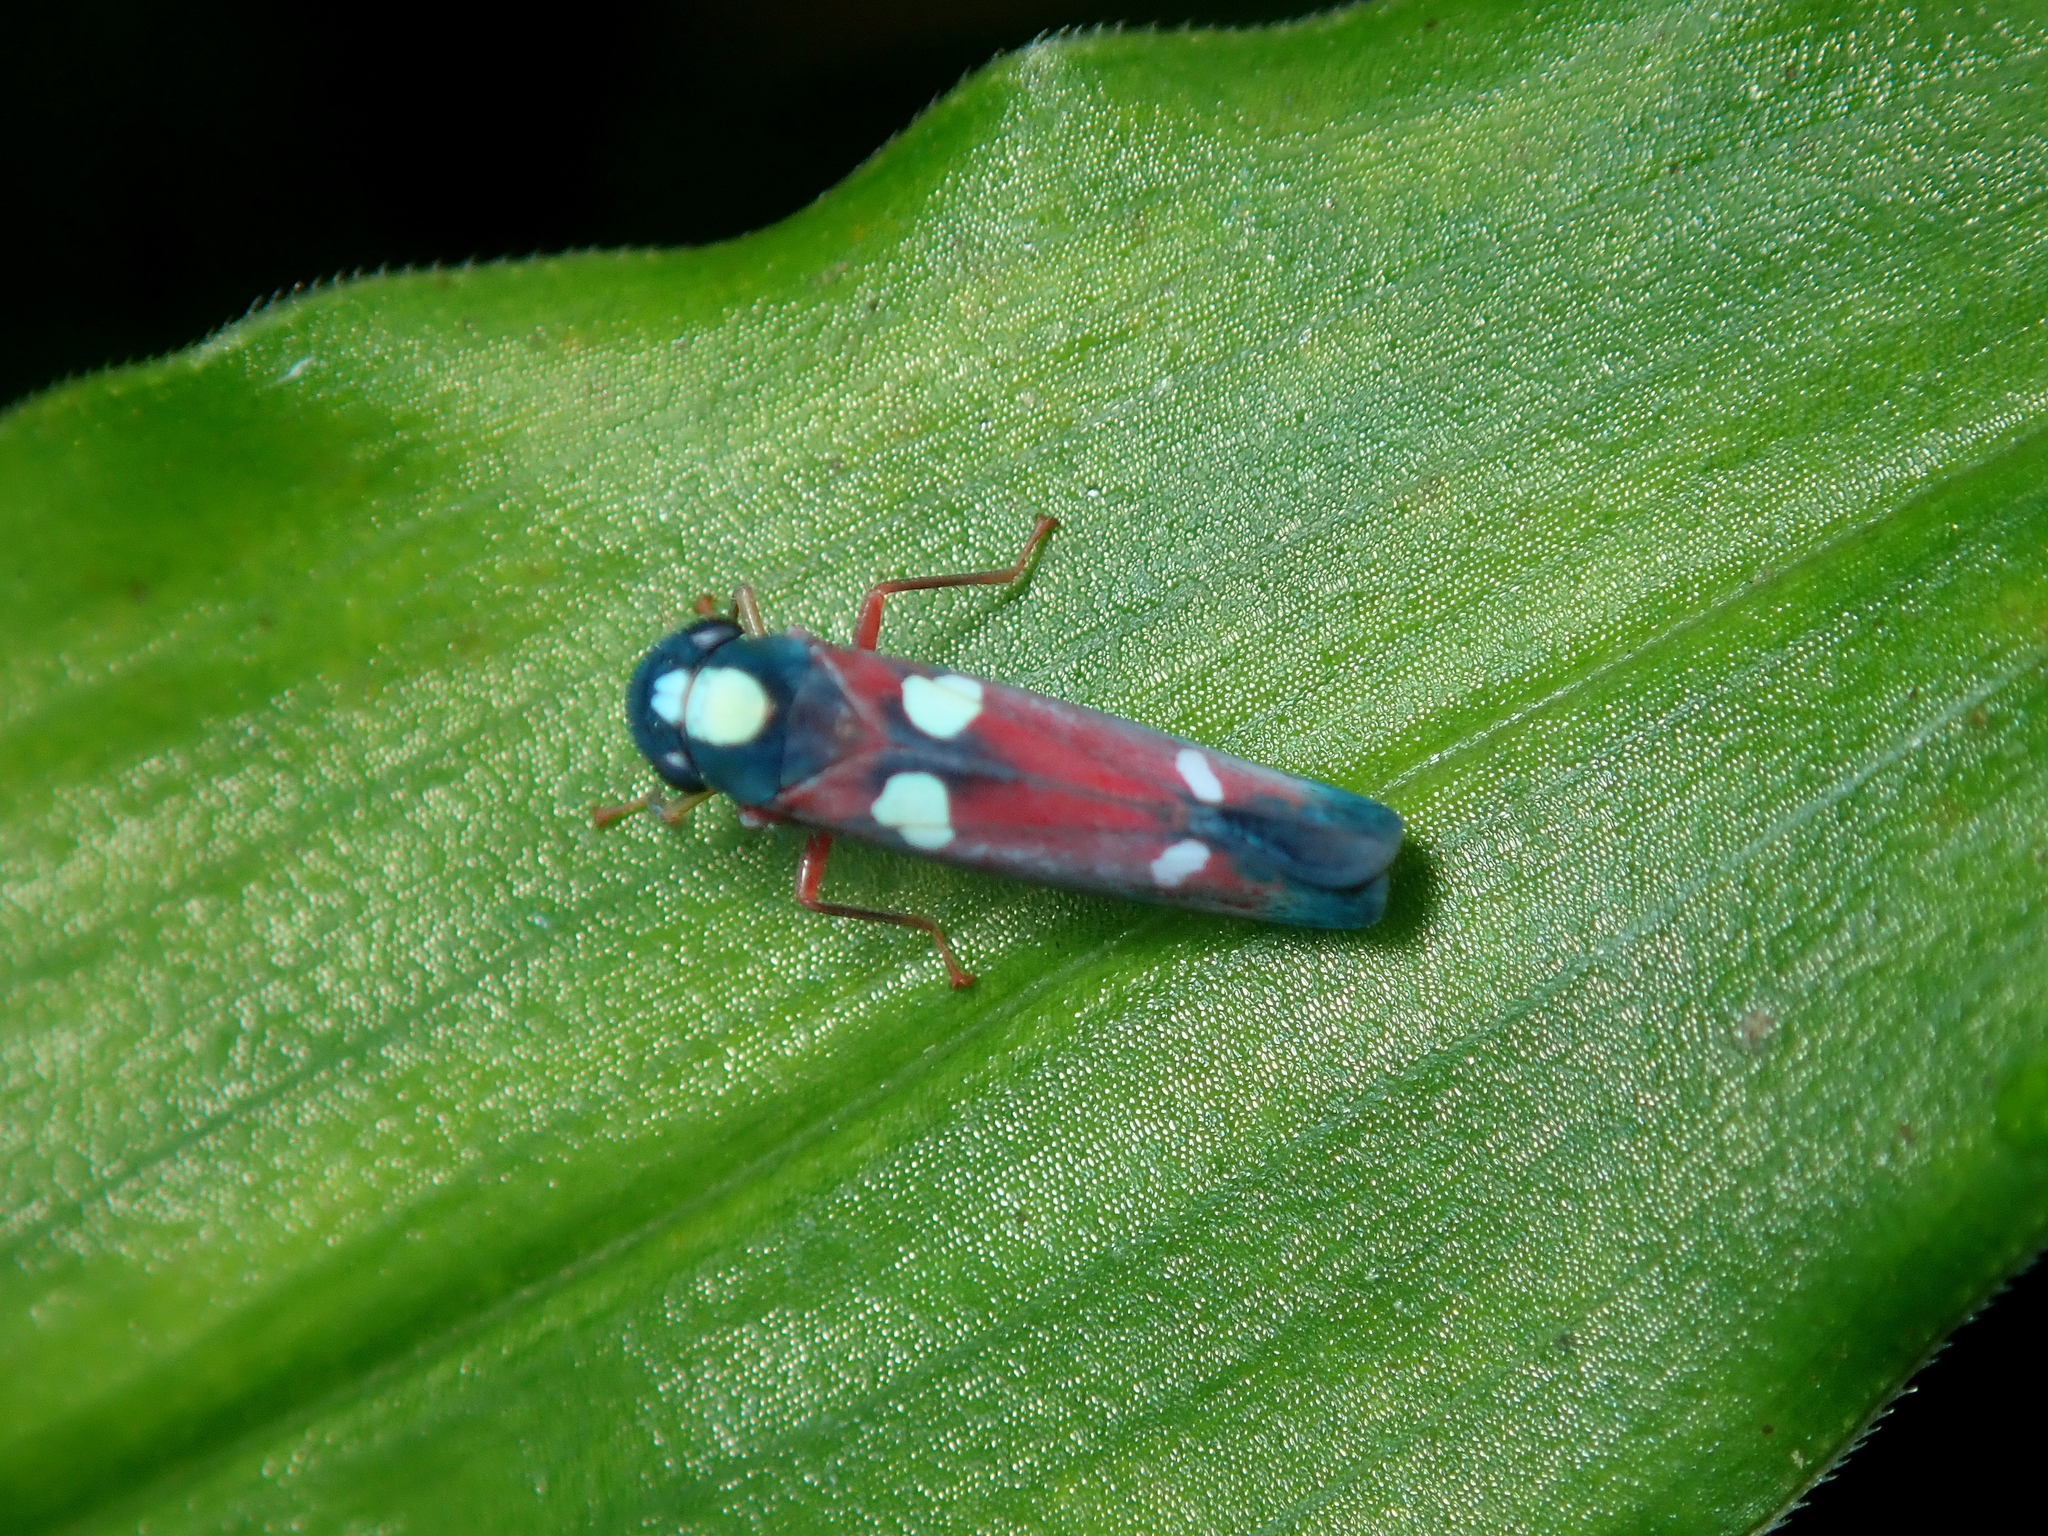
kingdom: Animalia
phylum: Arthropoda
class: Insecta
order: Hemiptera
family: Cicadellidae
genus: Erythrogonia
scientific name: Erythrogonia hertha
